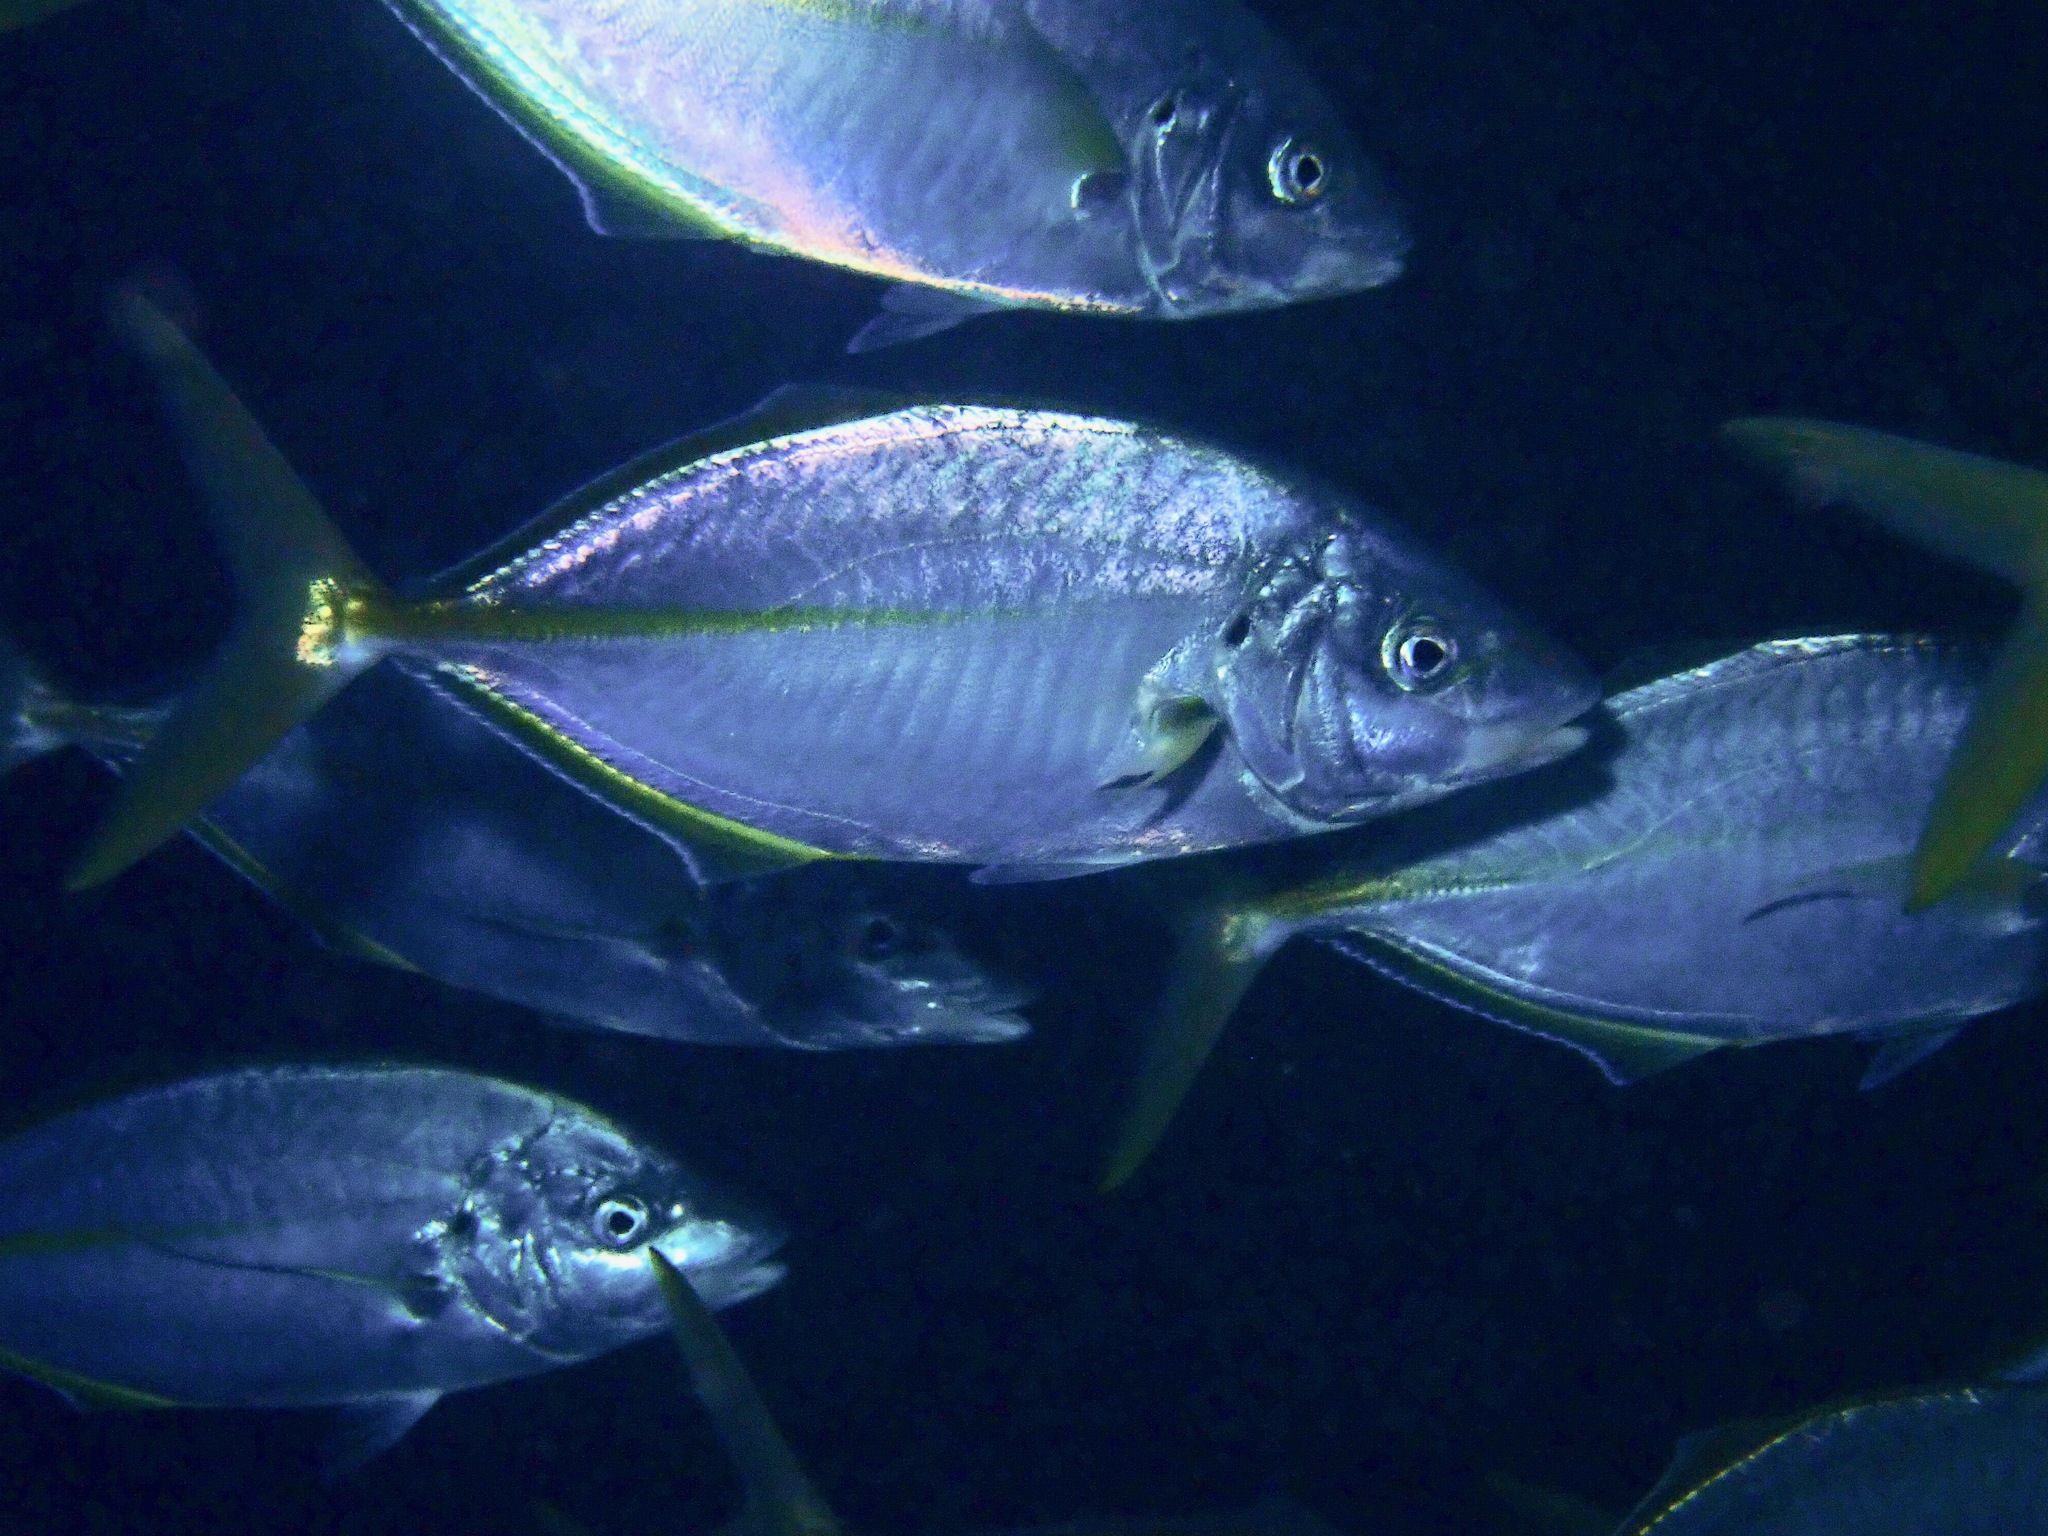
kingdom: Animalia
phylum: Chordata
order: Perciformes
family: Carangidae
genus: Pseudocaranx
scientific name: Pseudocaranx dentex
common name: White trevally
